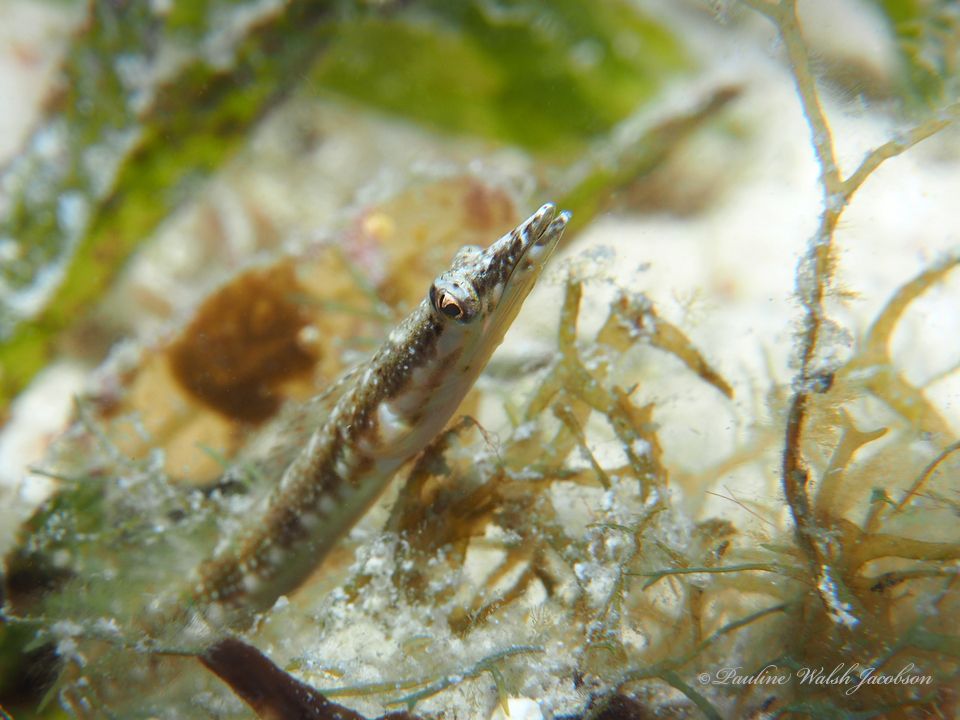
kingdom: Animalia
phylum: Chordata
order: Perciformes
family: Chaenopsidae
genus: Chaenopsis
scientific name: Chaenopsis ocellata
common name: Bluethroat pikeblenny
